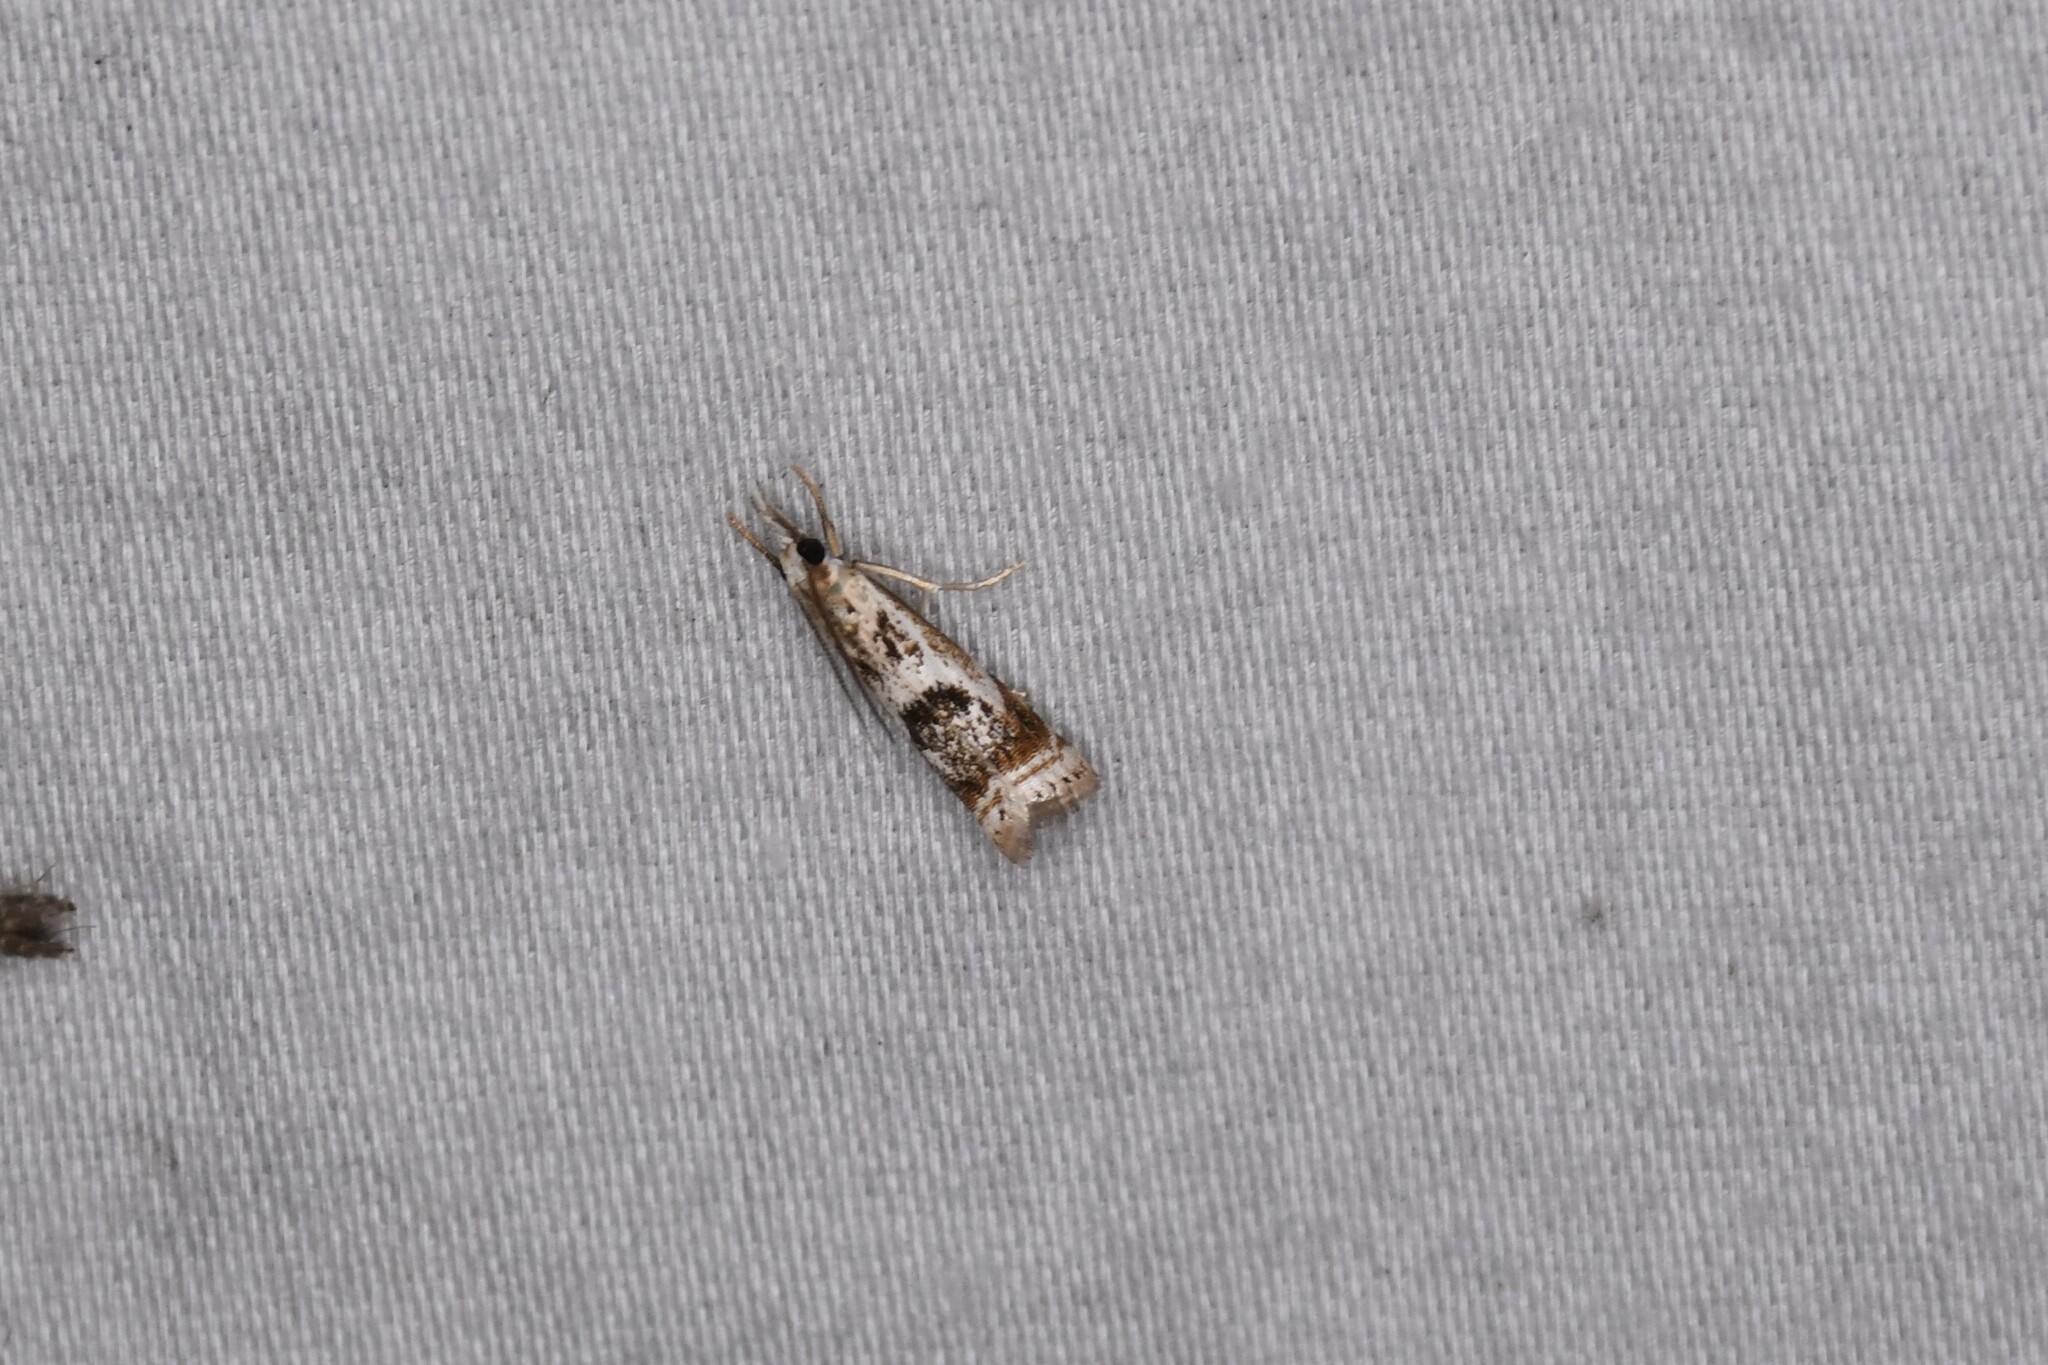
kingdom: Animalia
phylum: Arthropoda
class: Insecta
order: Lepidoptera
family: Crambidae
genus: Microcrambus
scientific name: Microcrambus elegans
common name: Elegant grass-veneer
